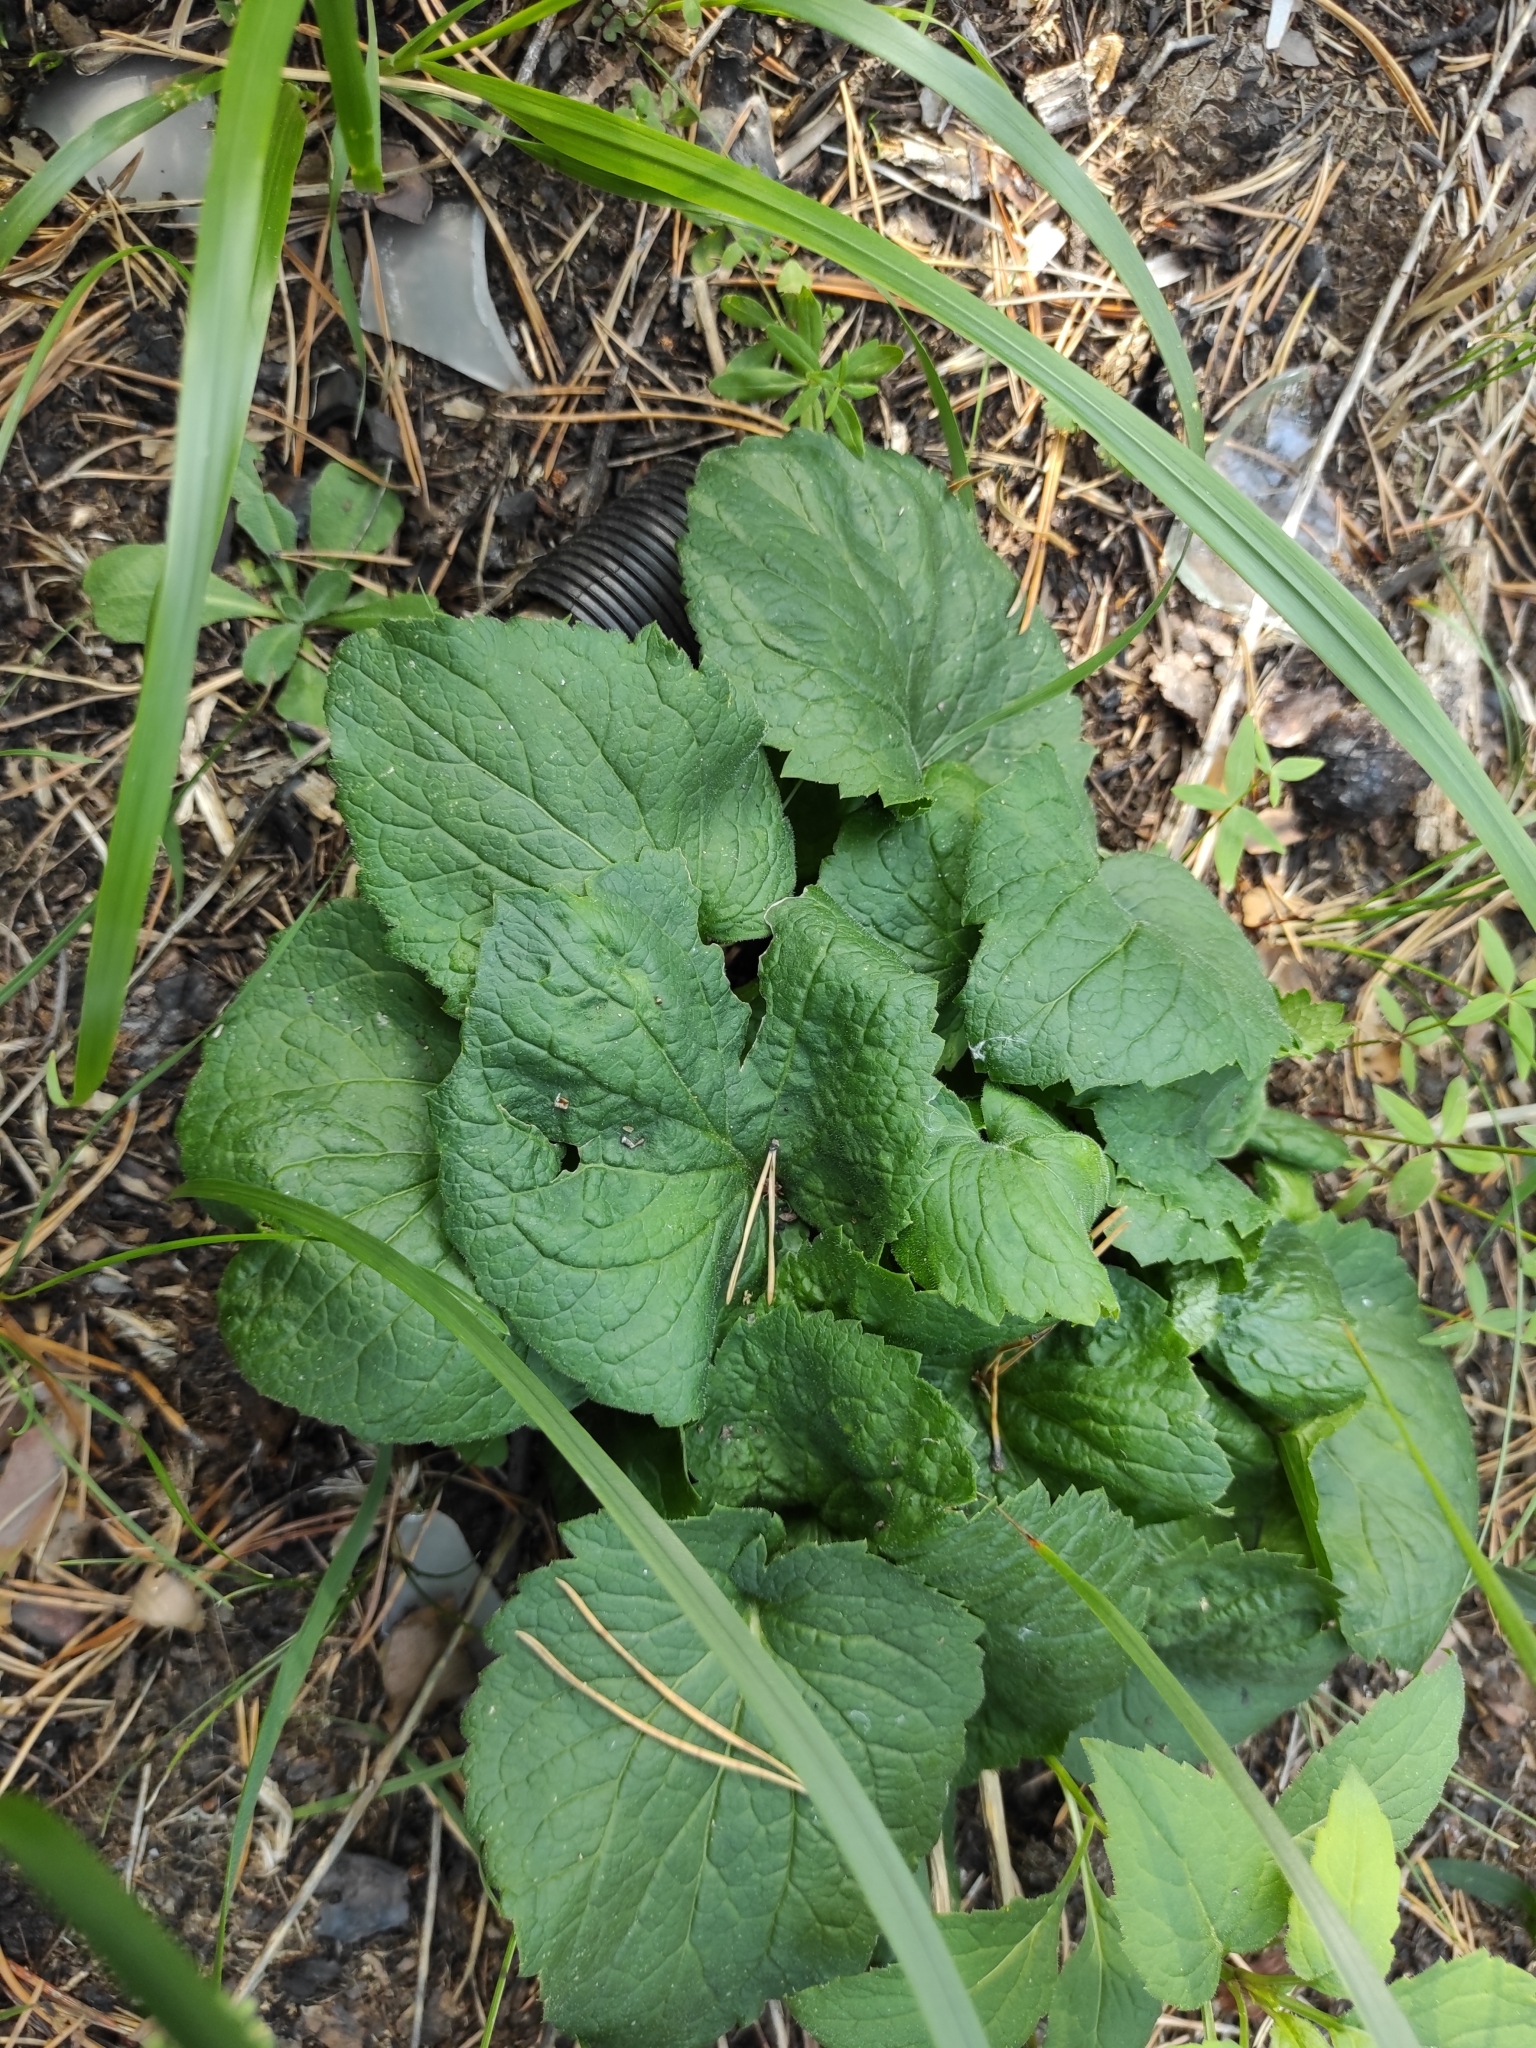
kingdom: Plantae
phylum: Tracheophyta
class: Magnoliopsida
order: Asterales
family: Campanulaceae
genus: Campanula
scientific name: Campanula rapunculoides
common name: Creeping bellflower
